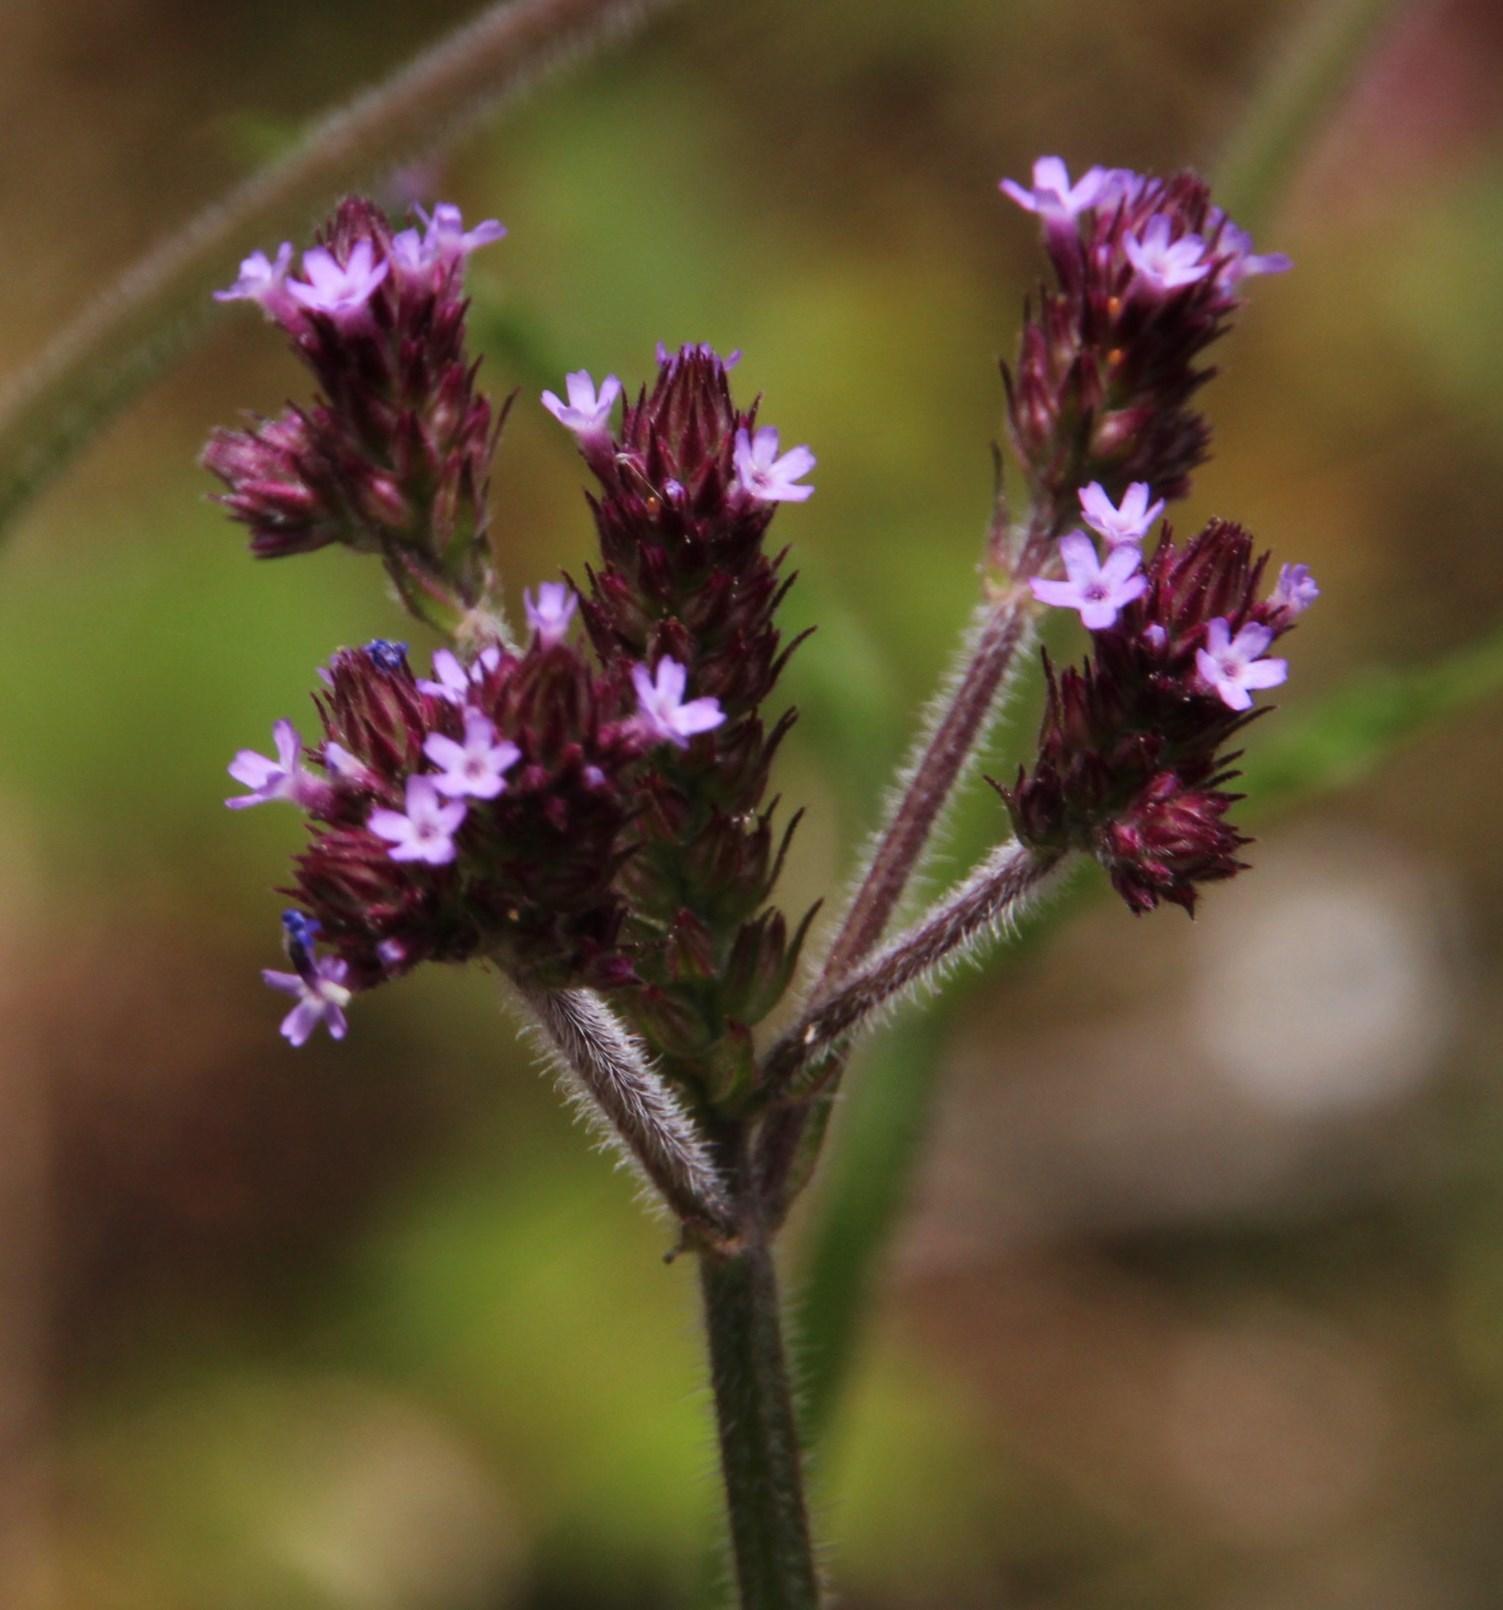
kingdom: Plantae
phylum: Tracheophyta
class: Magnoliopsida
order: Lamiales
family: Verbenaceae
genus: Verbena
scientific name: Verbena bonariensis
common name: Purpletop vervain
